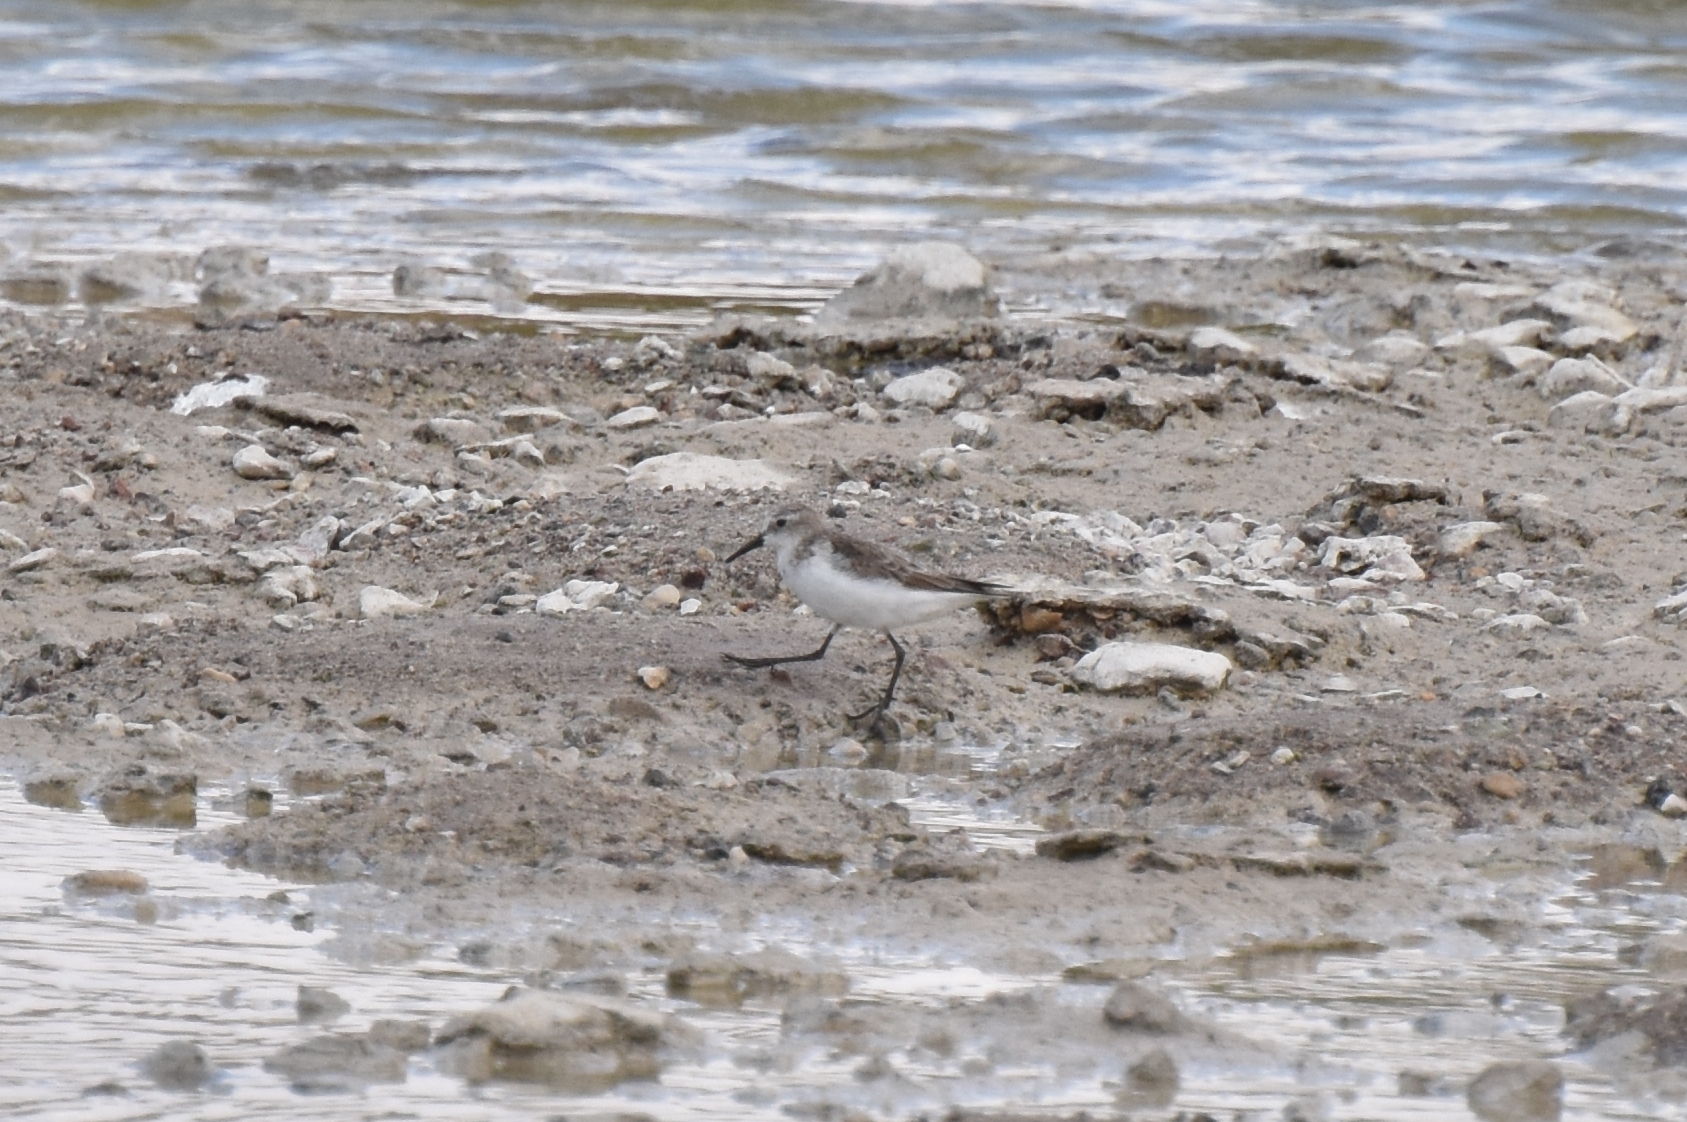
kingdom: Animalia
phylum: Chordata
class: Aves
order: Charadriiformes
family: Scolopacidae
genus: Calidris
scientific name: Calidris minuta
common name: Little stint
